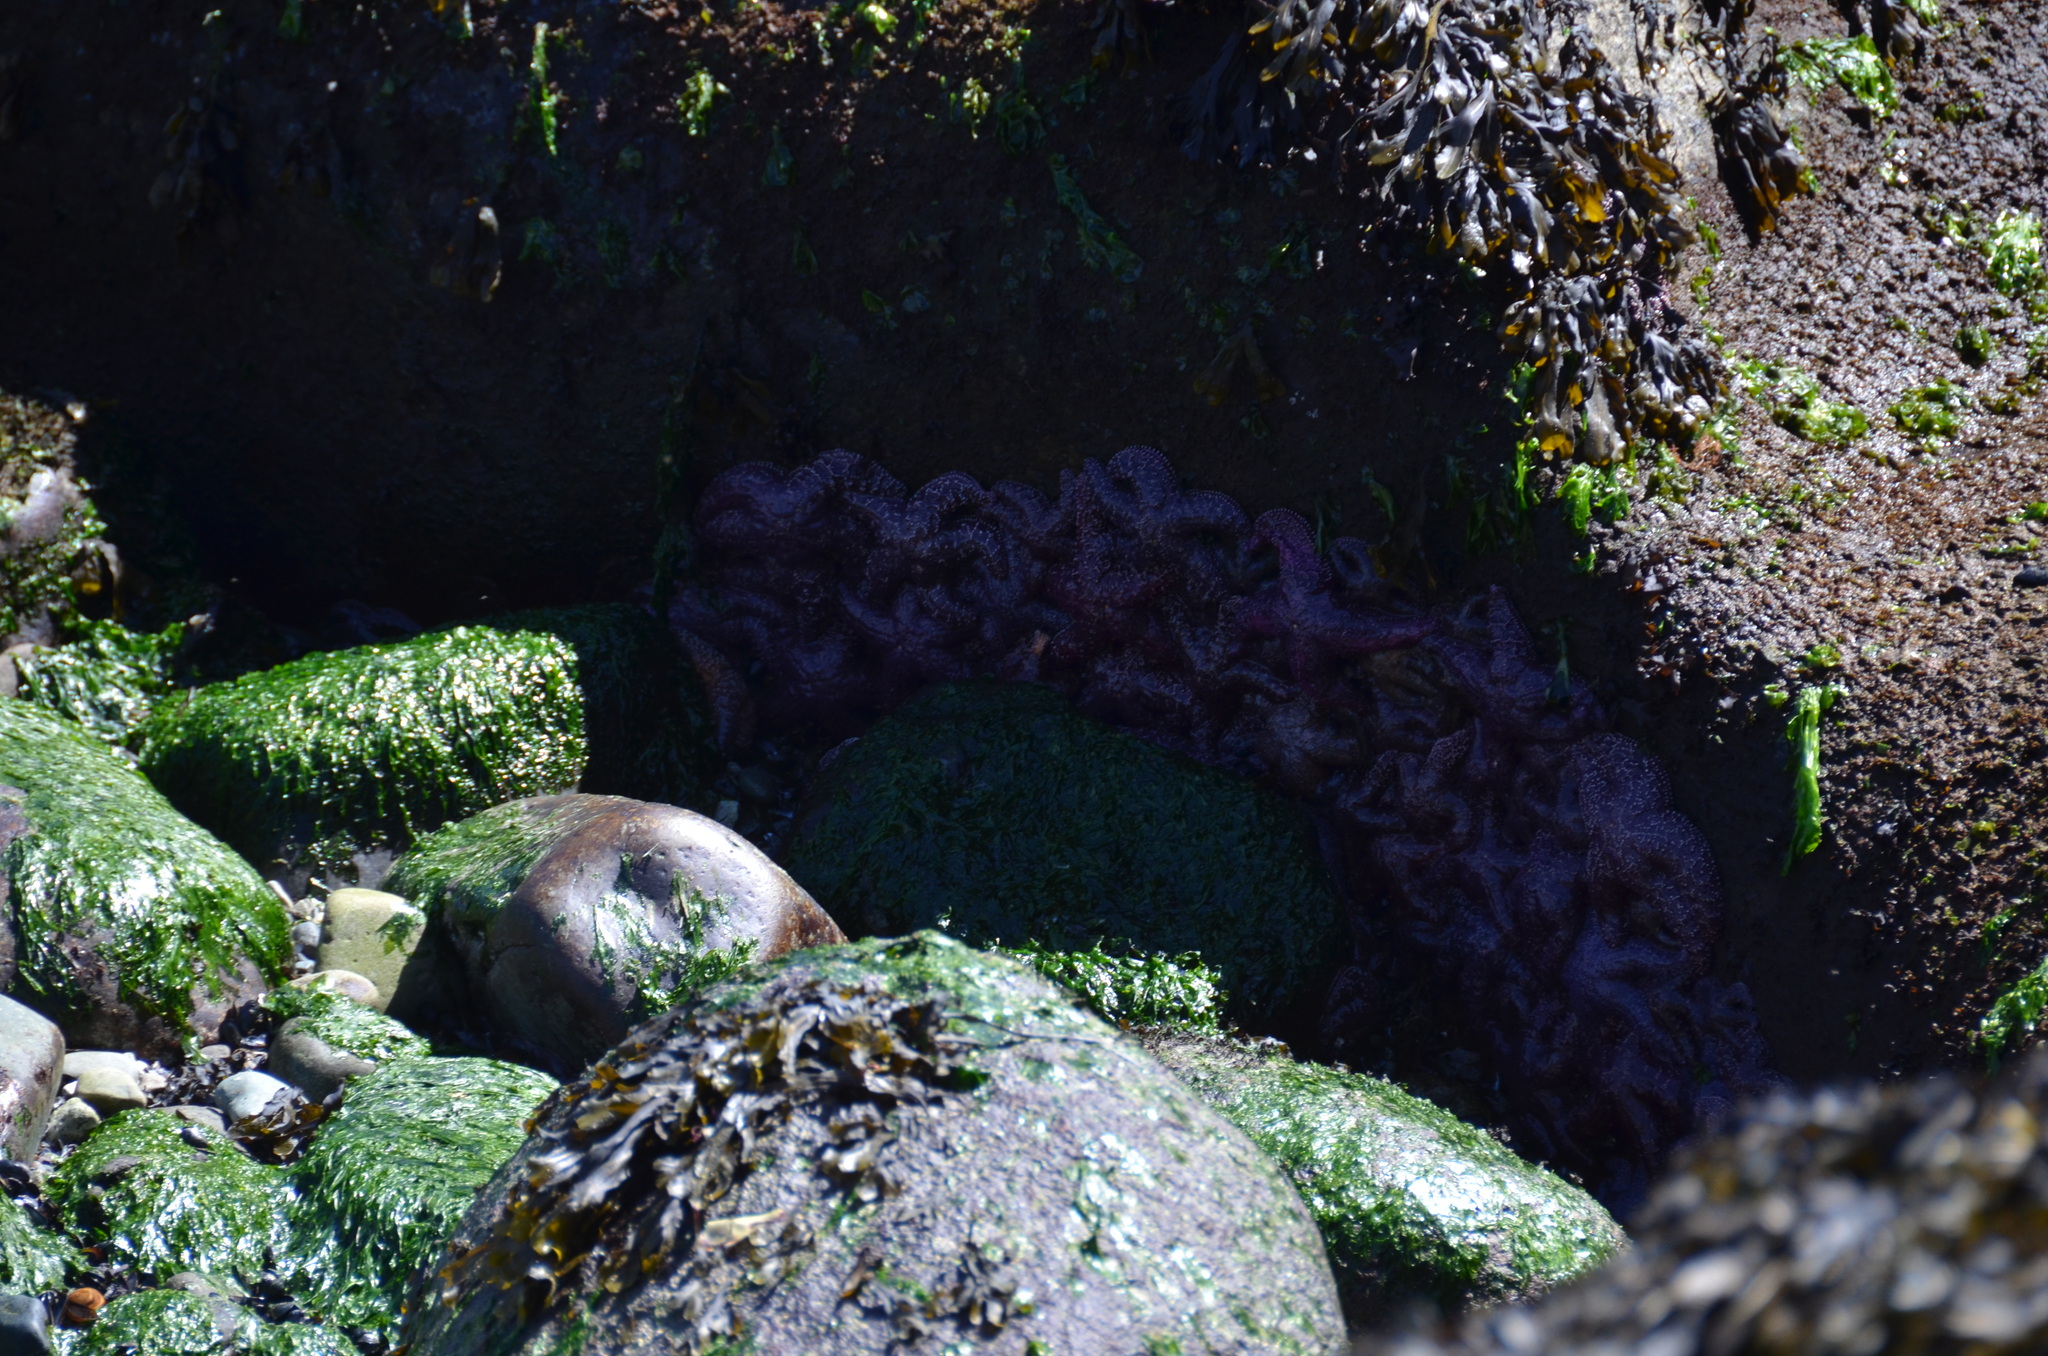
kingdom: Animalia
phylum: Echinodermata
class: Asteroidea
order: Forcipulatida
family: Asteriidae
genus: Pisaster
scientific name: Pisaster ochraceus
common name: Ochre stars
